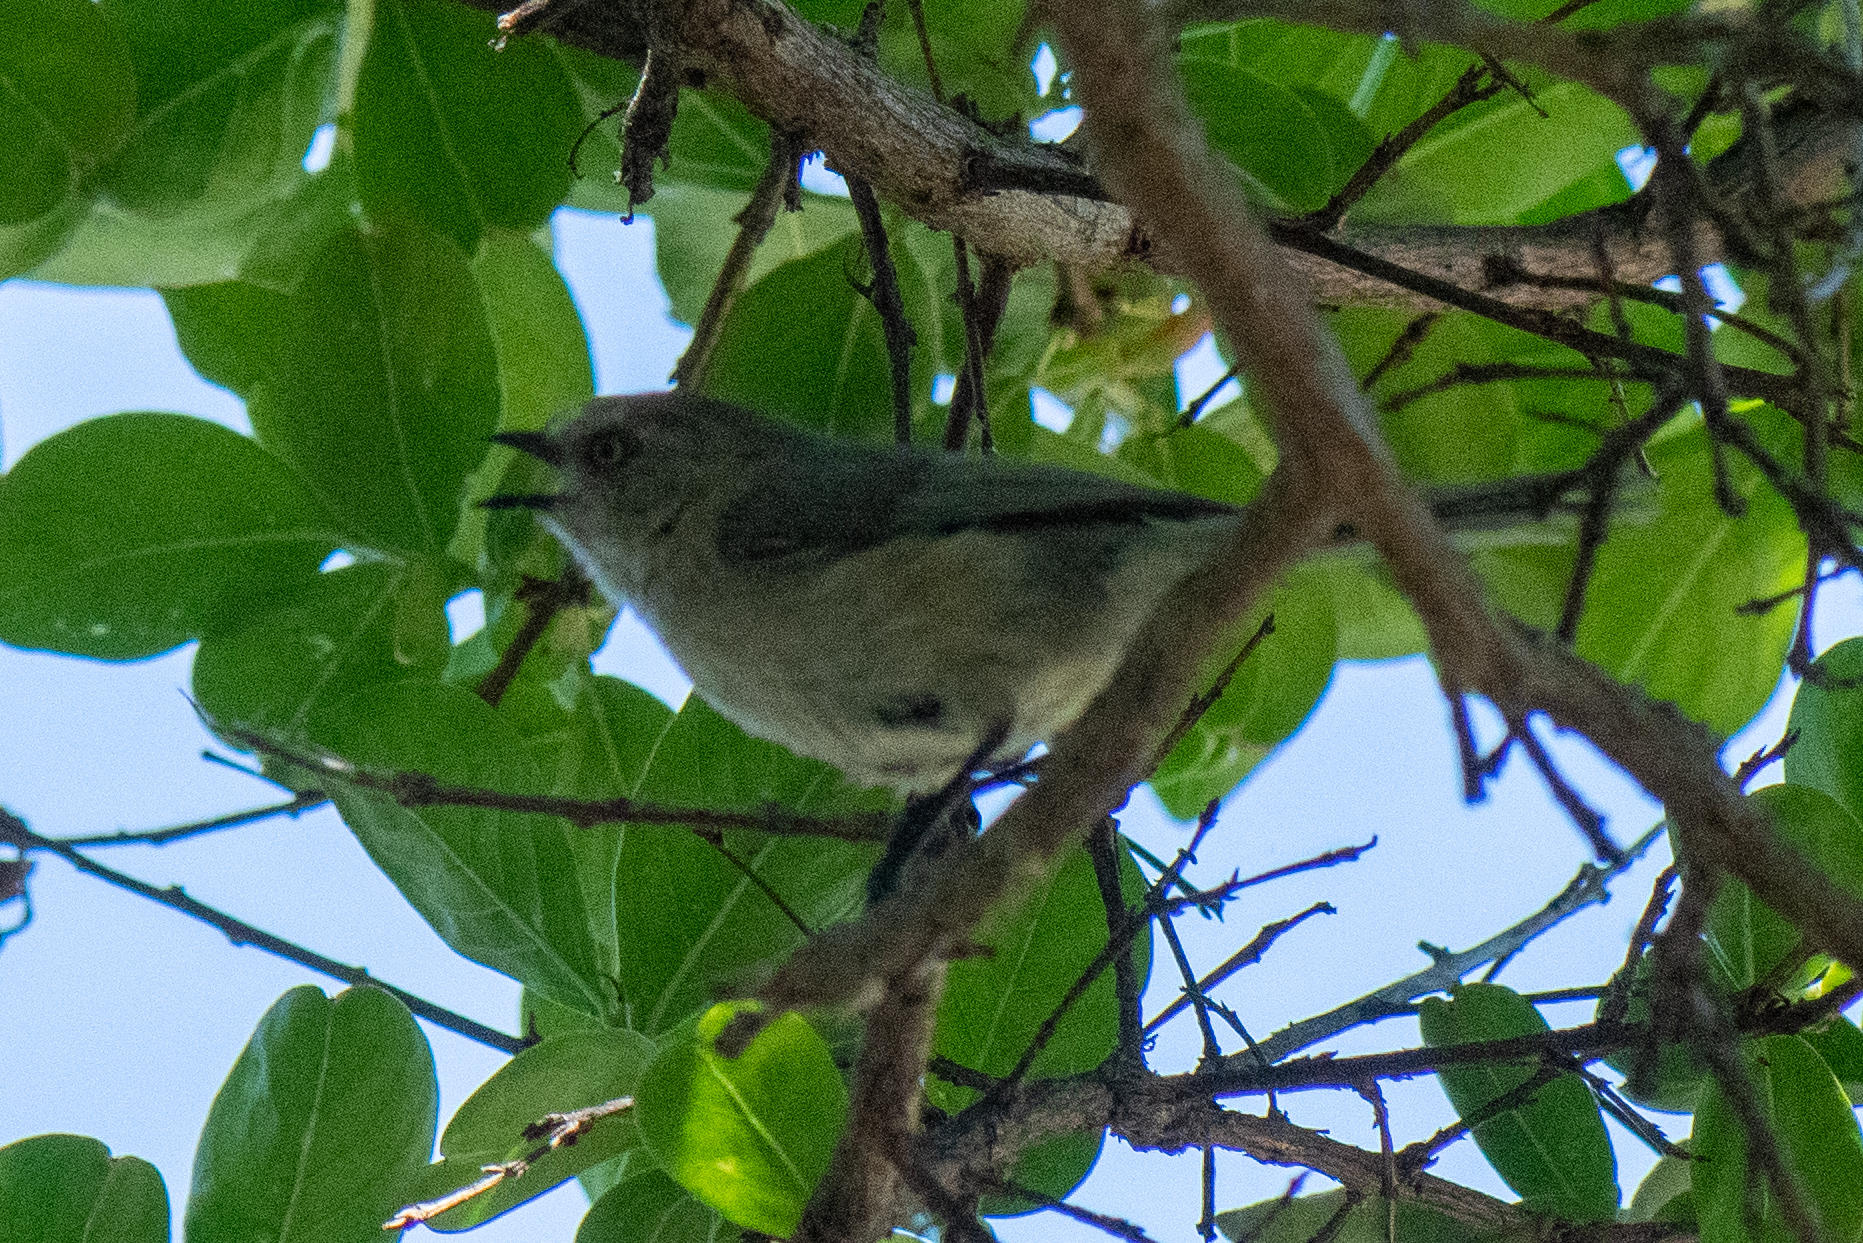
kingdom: Animalia
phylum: Chordata
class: Aves
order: Passeriformes
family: Aegithalidae
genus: Psaltriparus
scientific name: Psaltriparus minimus
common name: American bushtit
